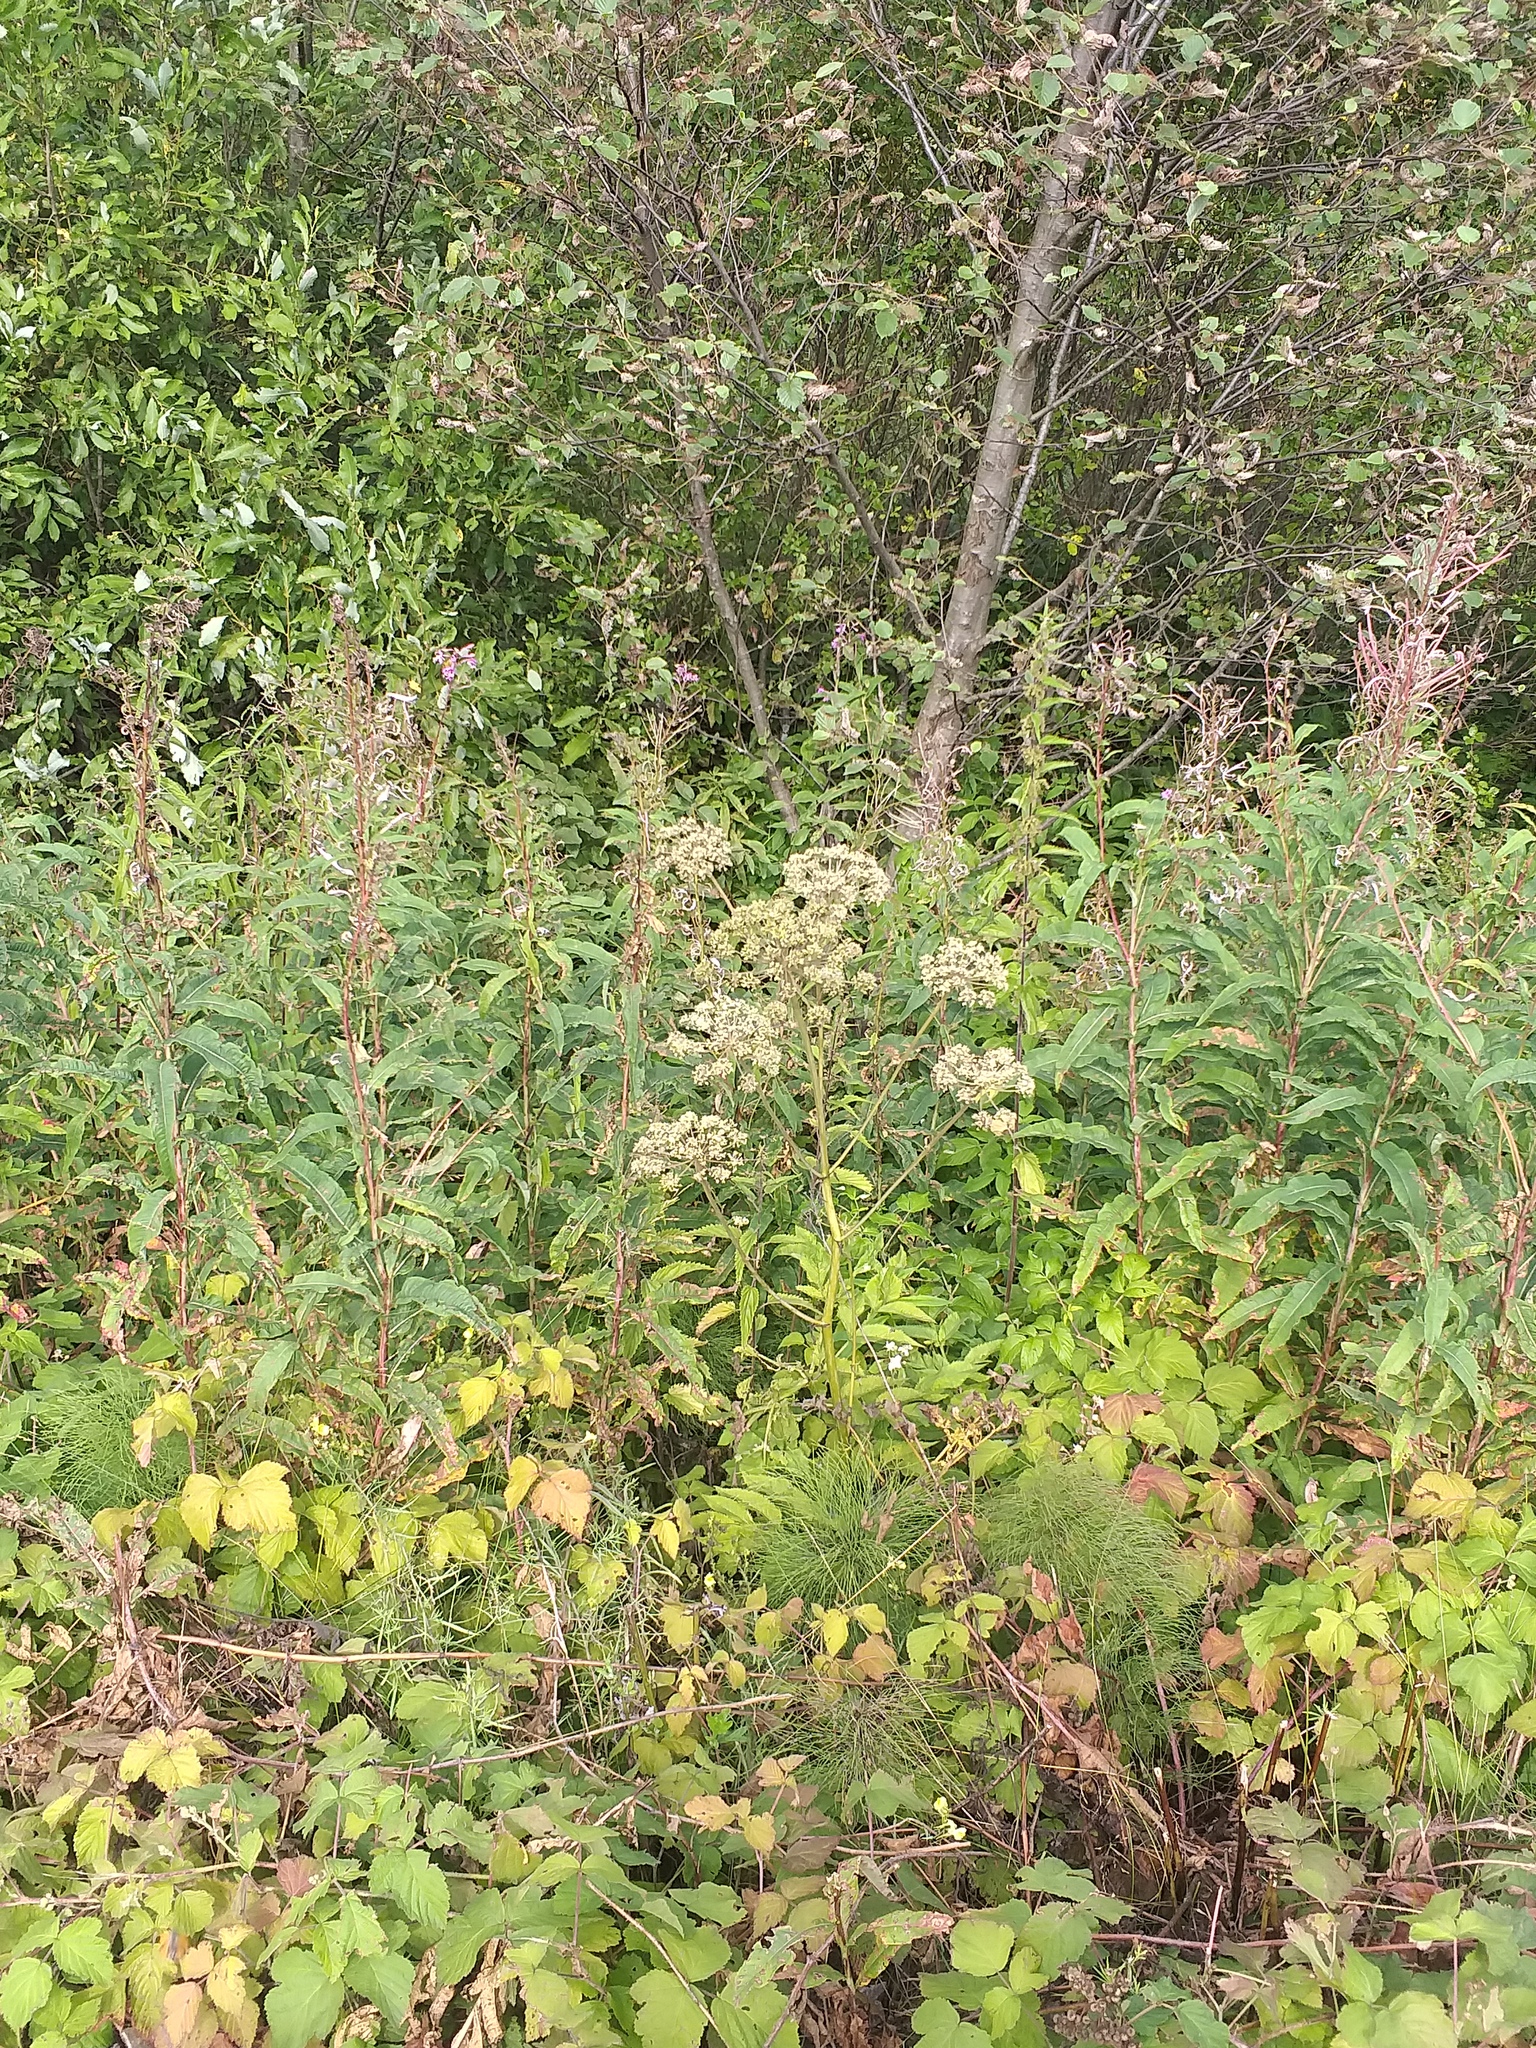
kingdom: Plantae
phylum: Tracheophyta
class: Magnoliopsida
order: Apiales
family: Apiaceae
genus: Angelica
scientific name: Angelica sylvestris
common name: Wild angelica
